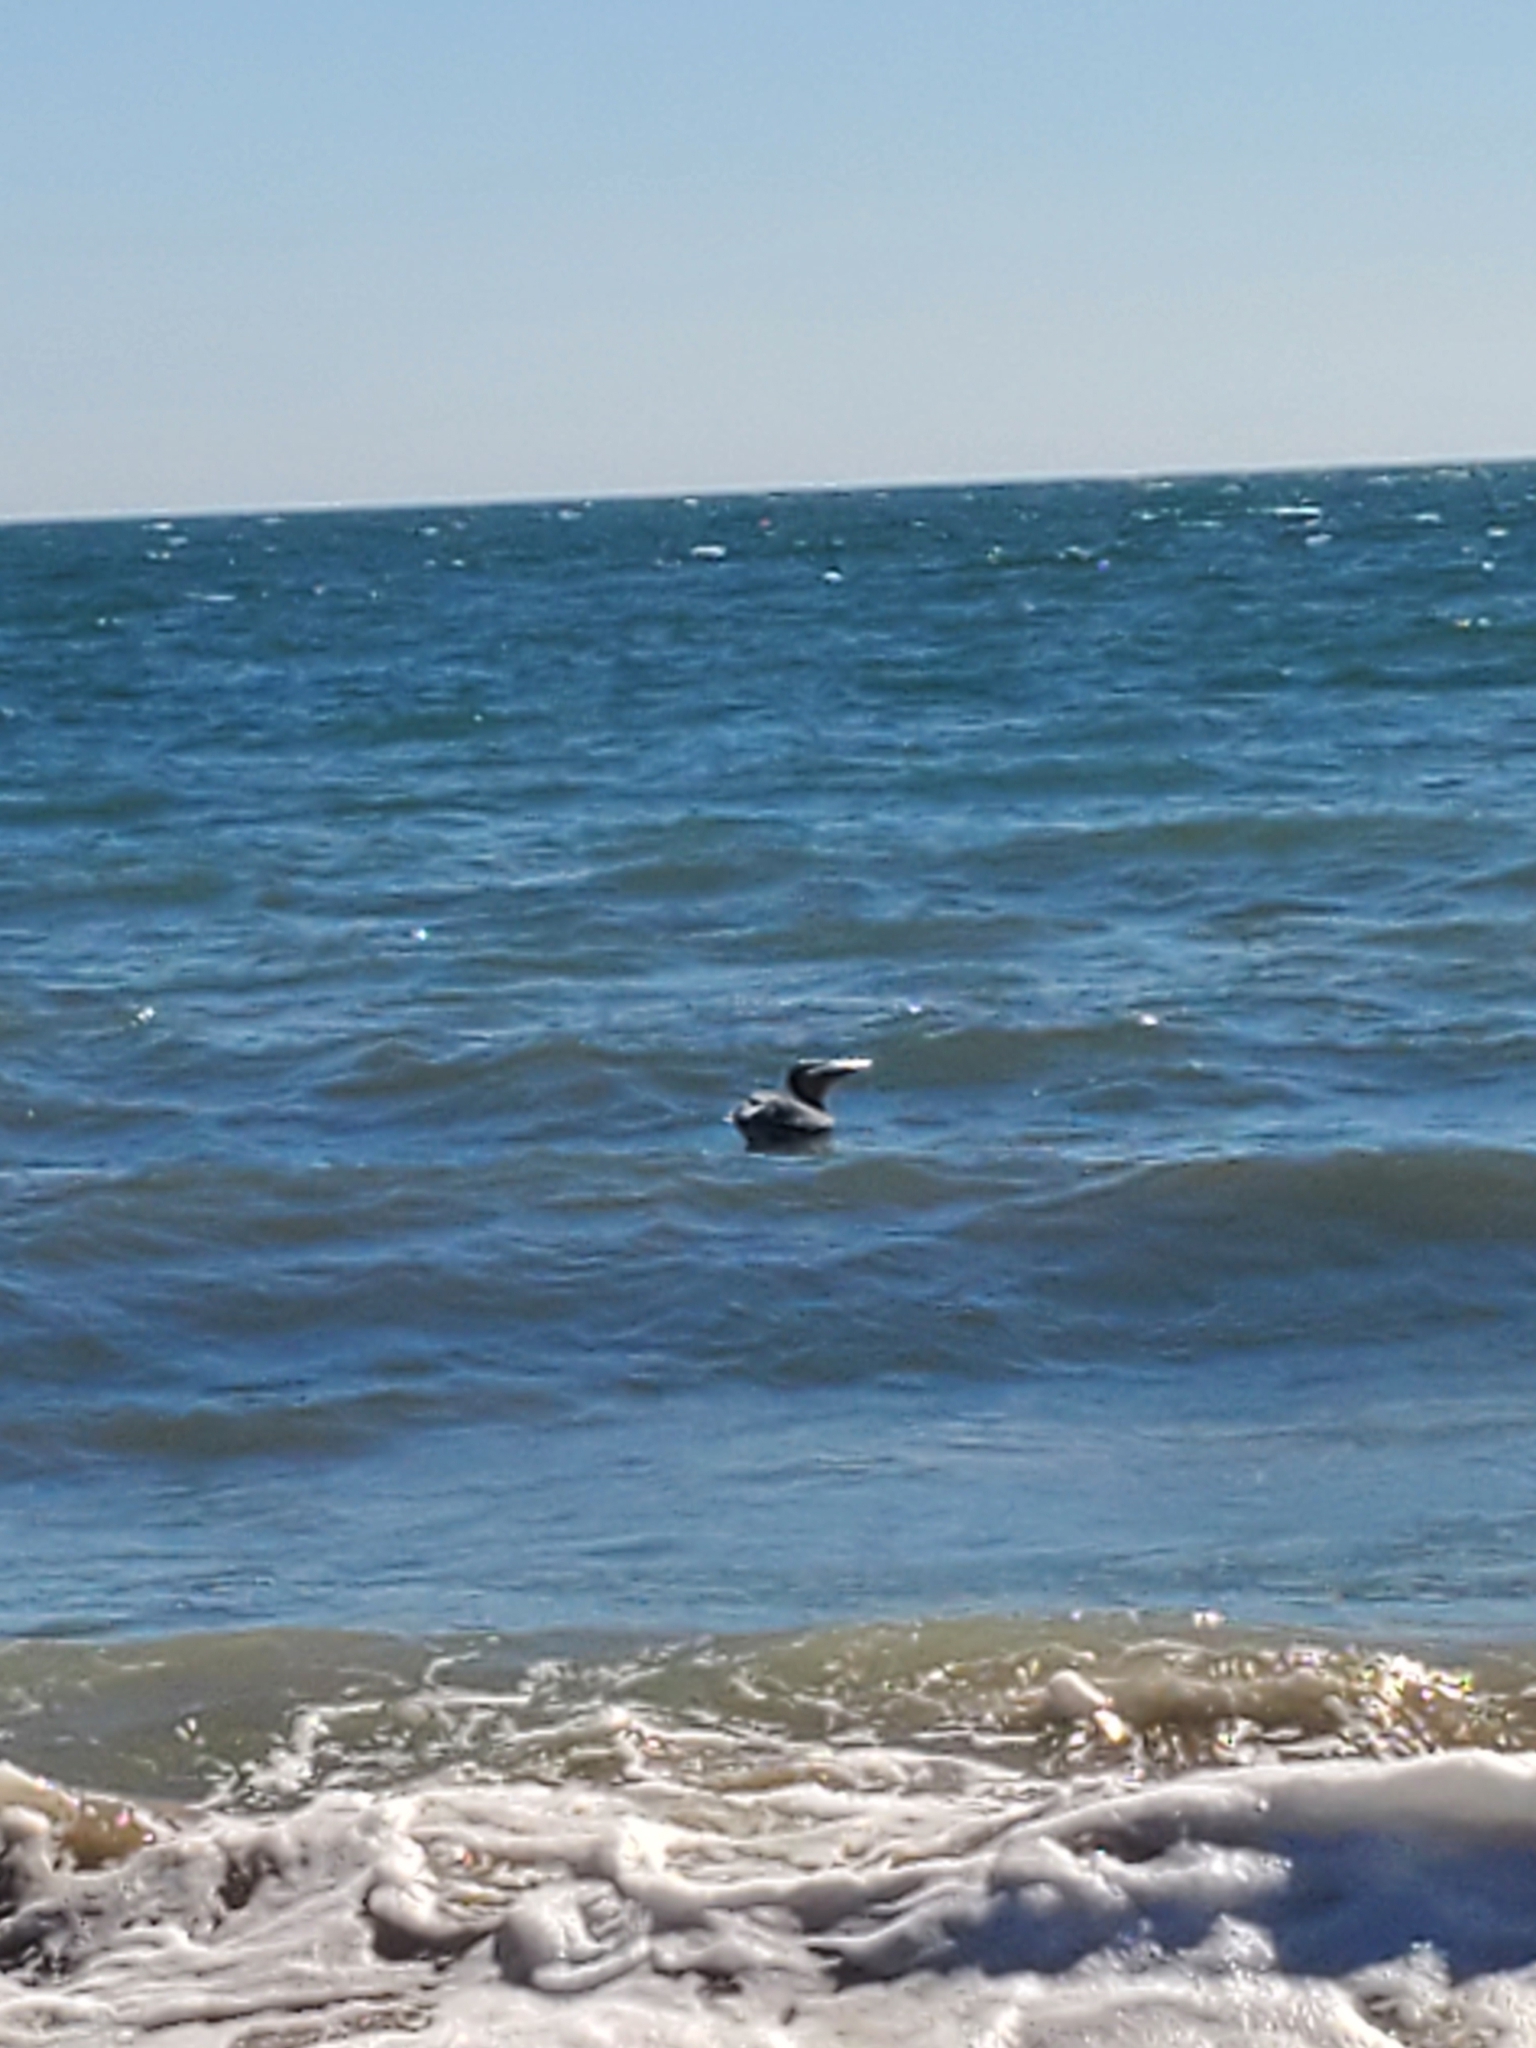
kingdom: Animalia
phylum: Chordata
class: Aves
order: Pelecaniformes
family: Pelecanidae
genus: Pelecanus
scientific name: Pelecanus occidentalis
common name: Brown pelican
